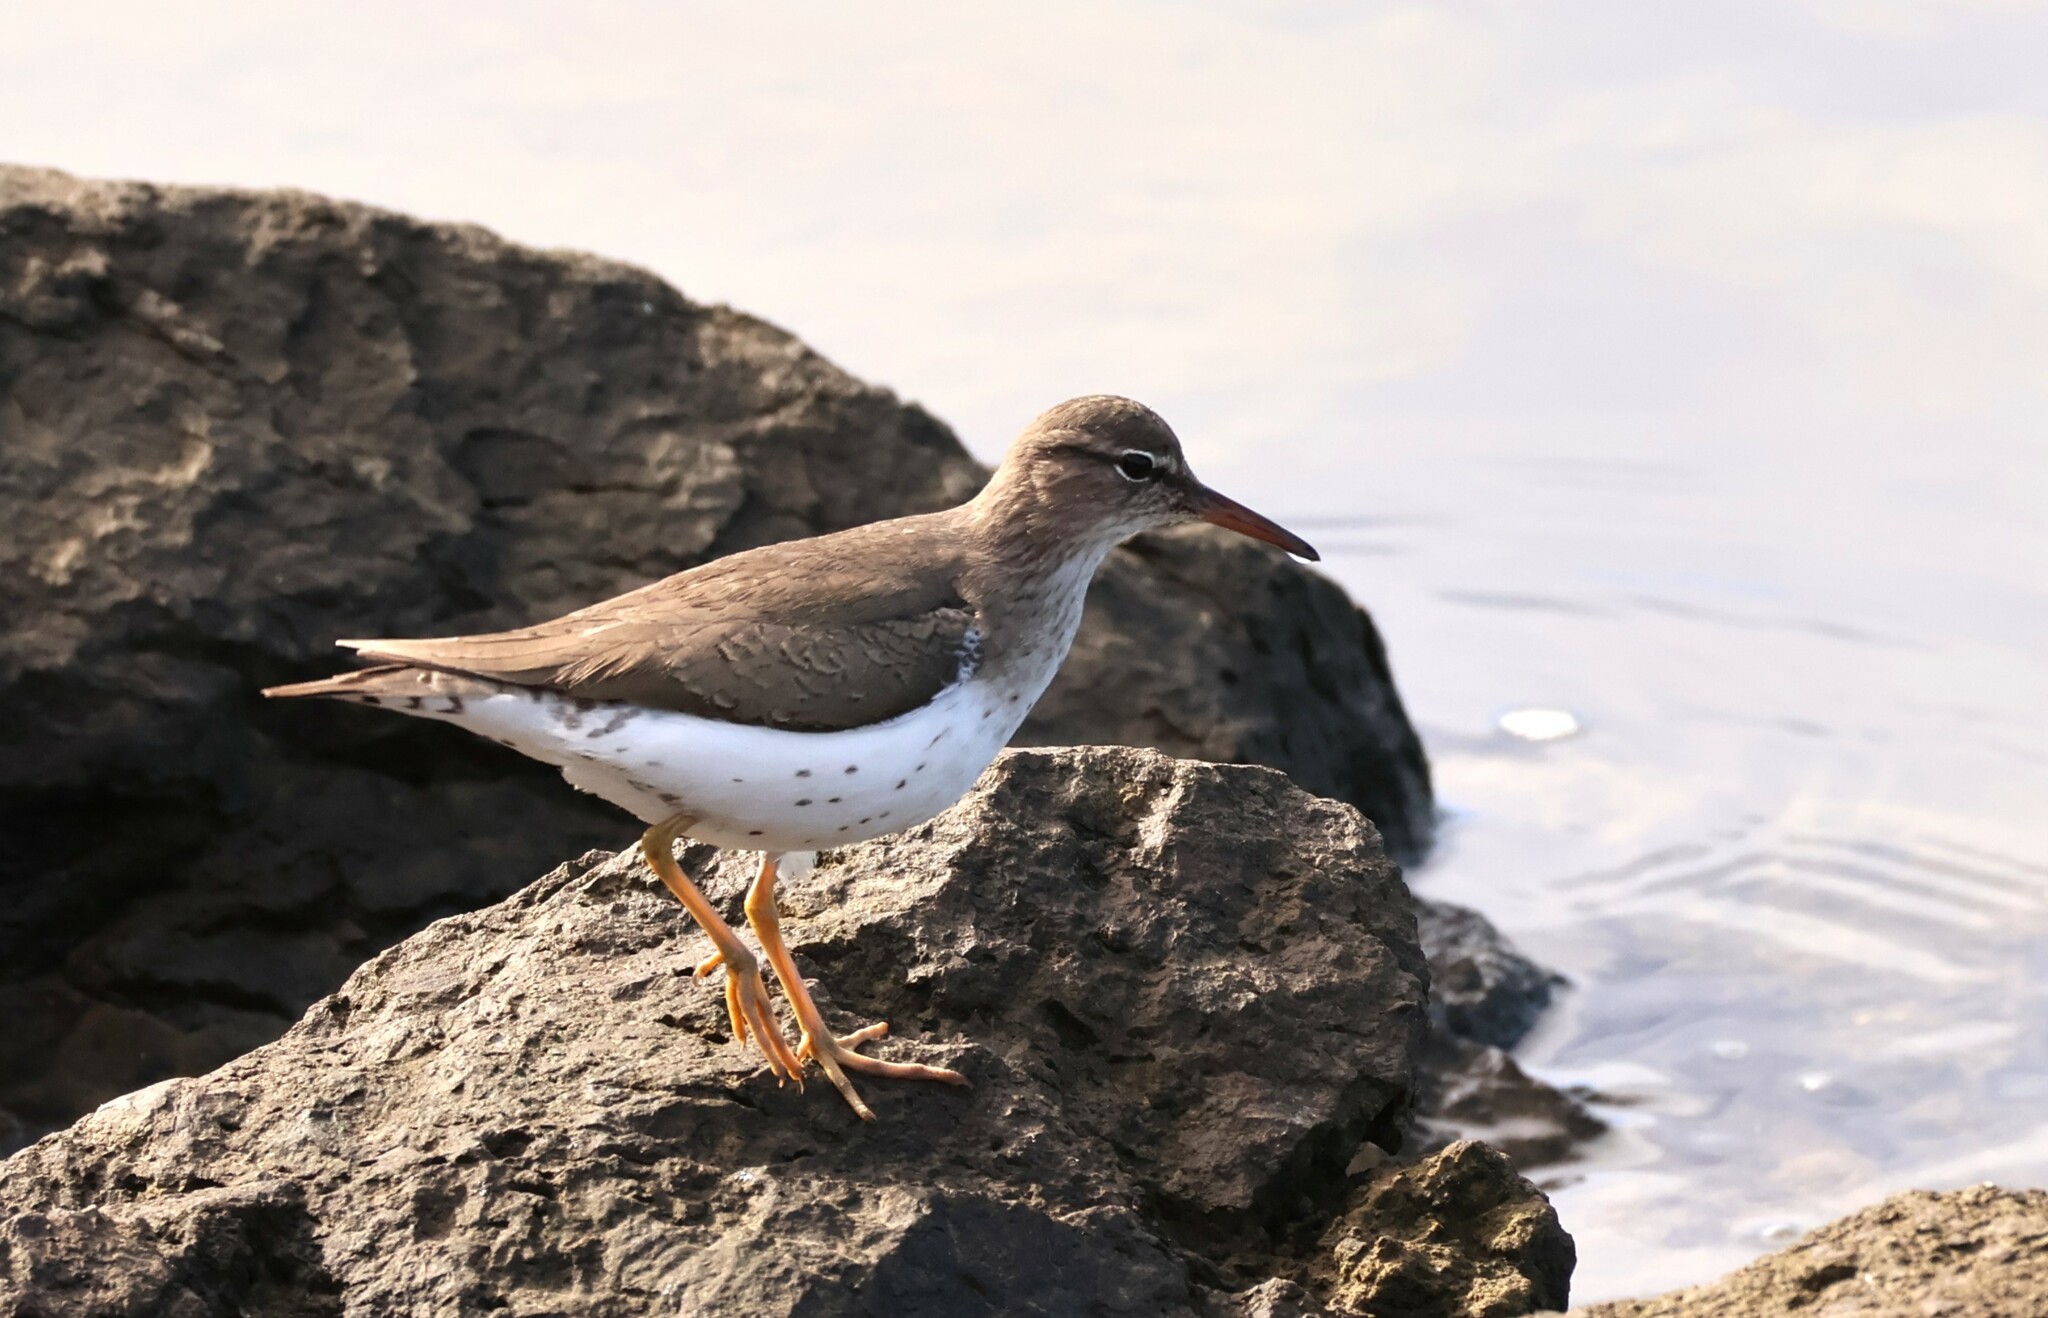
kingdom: Animalia
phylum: Chordata
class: Aves
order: Charadriiformes
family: Scolopacidae
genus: Actitis
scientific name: Actitis macularius
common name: Spotted sandpiper
